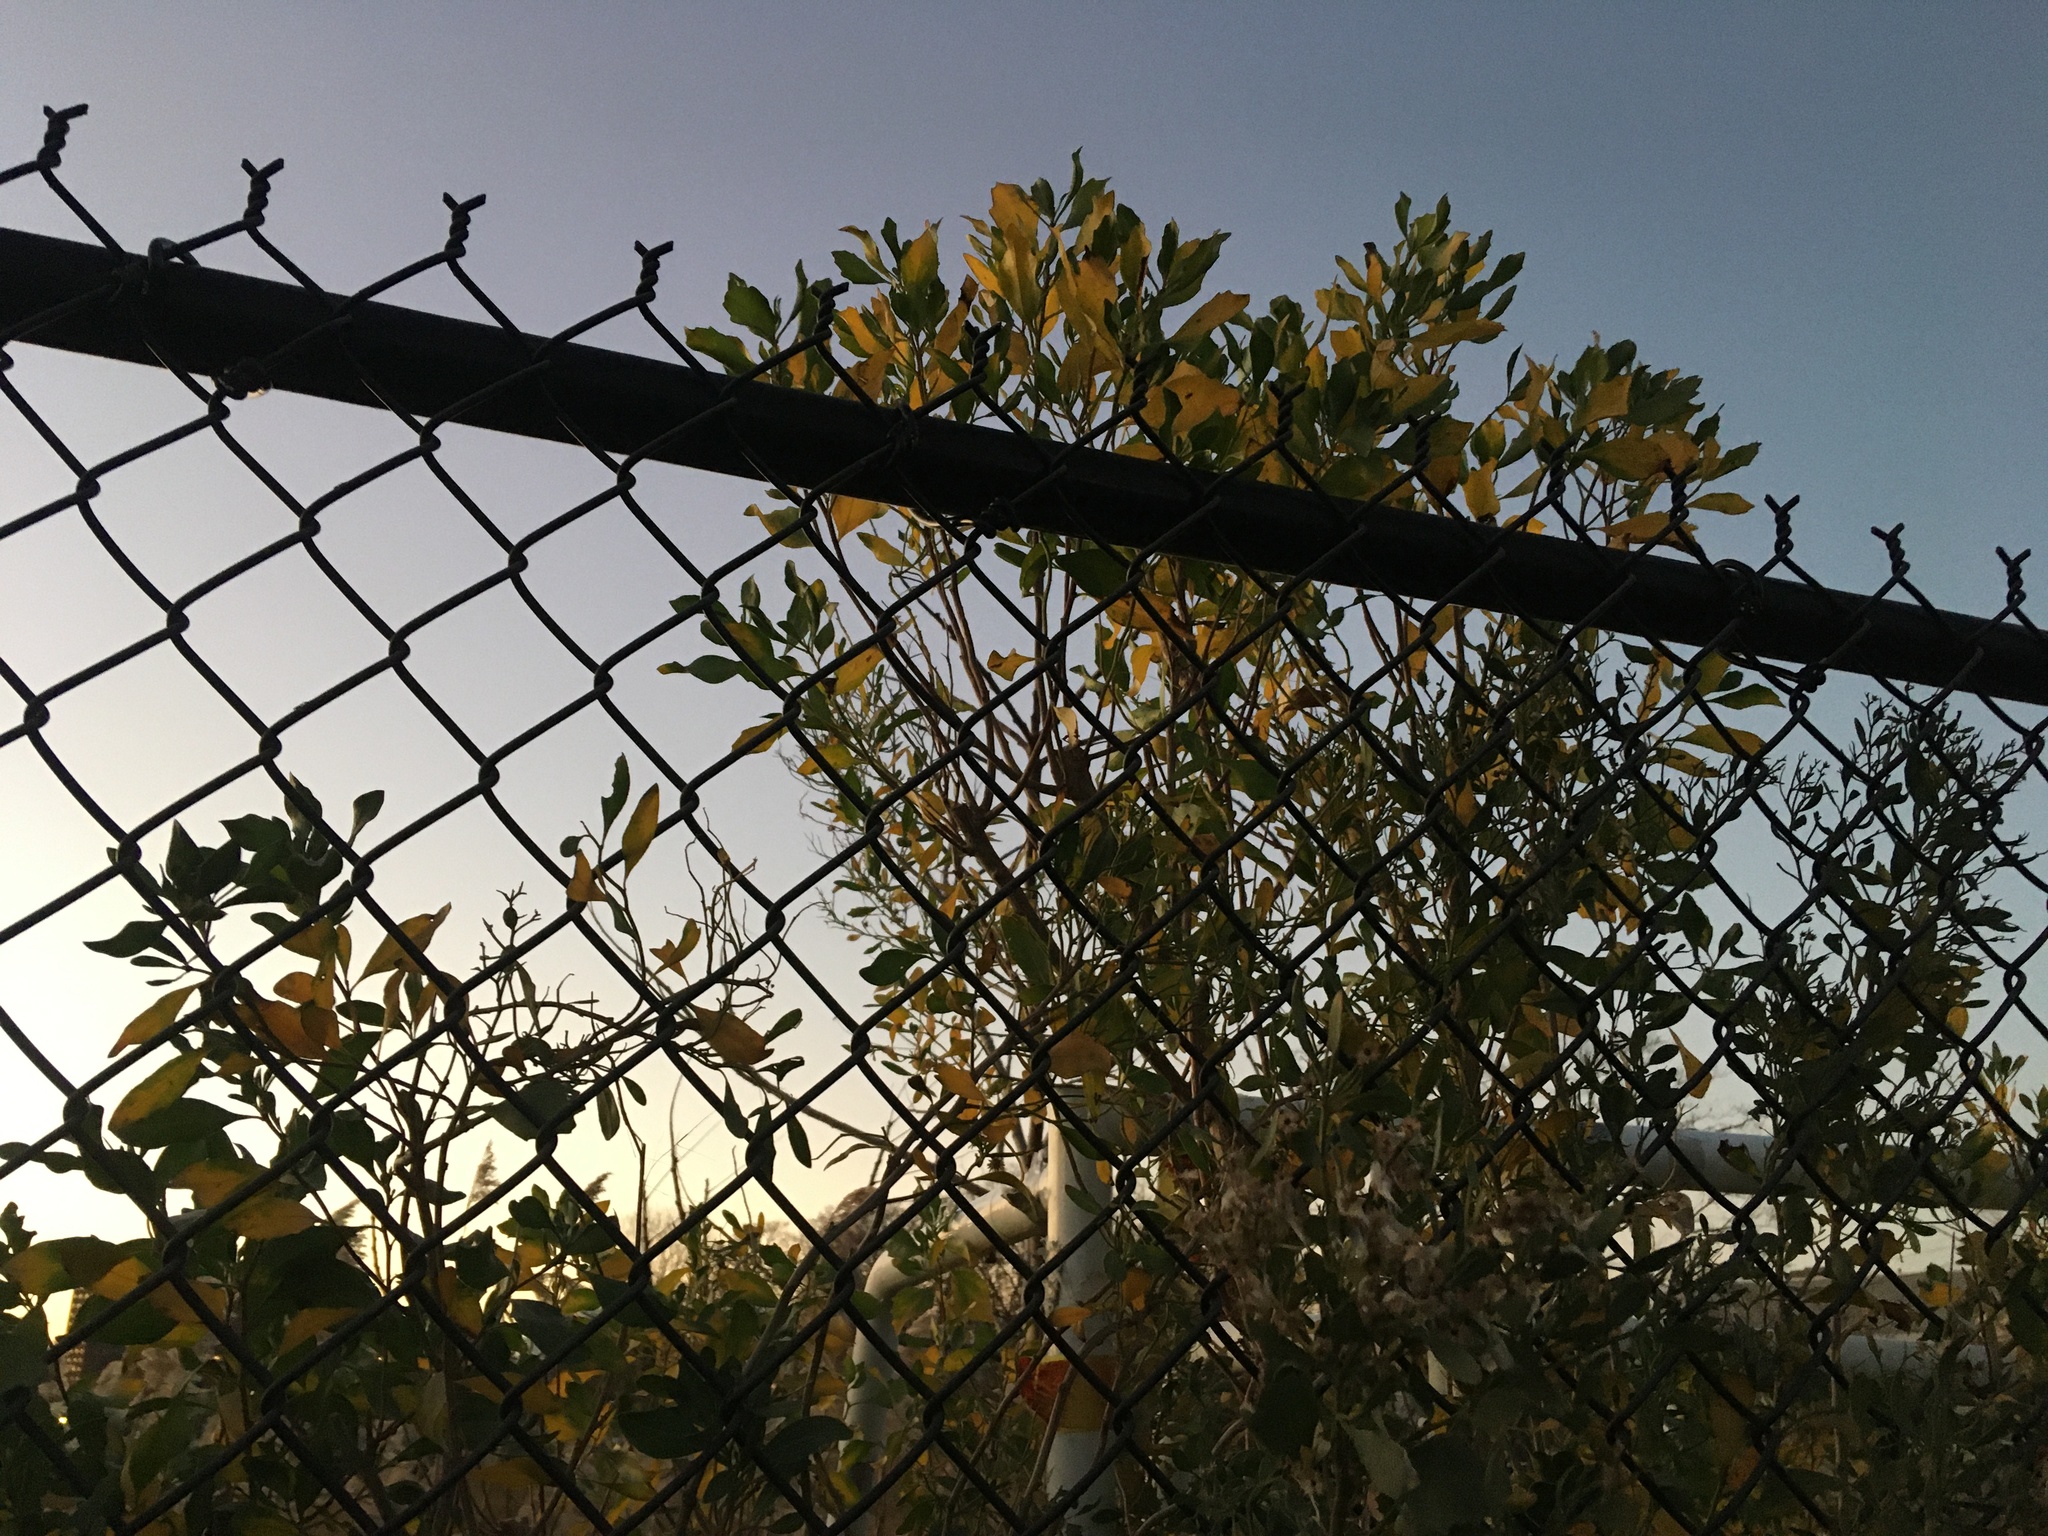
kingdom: Plantae
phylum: Tracheophyta
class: Magnoliopsida
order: Asterales
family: Asteraceae
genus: Baccharis
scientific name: Baccharis halimifolia
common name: Eastern baccharis
